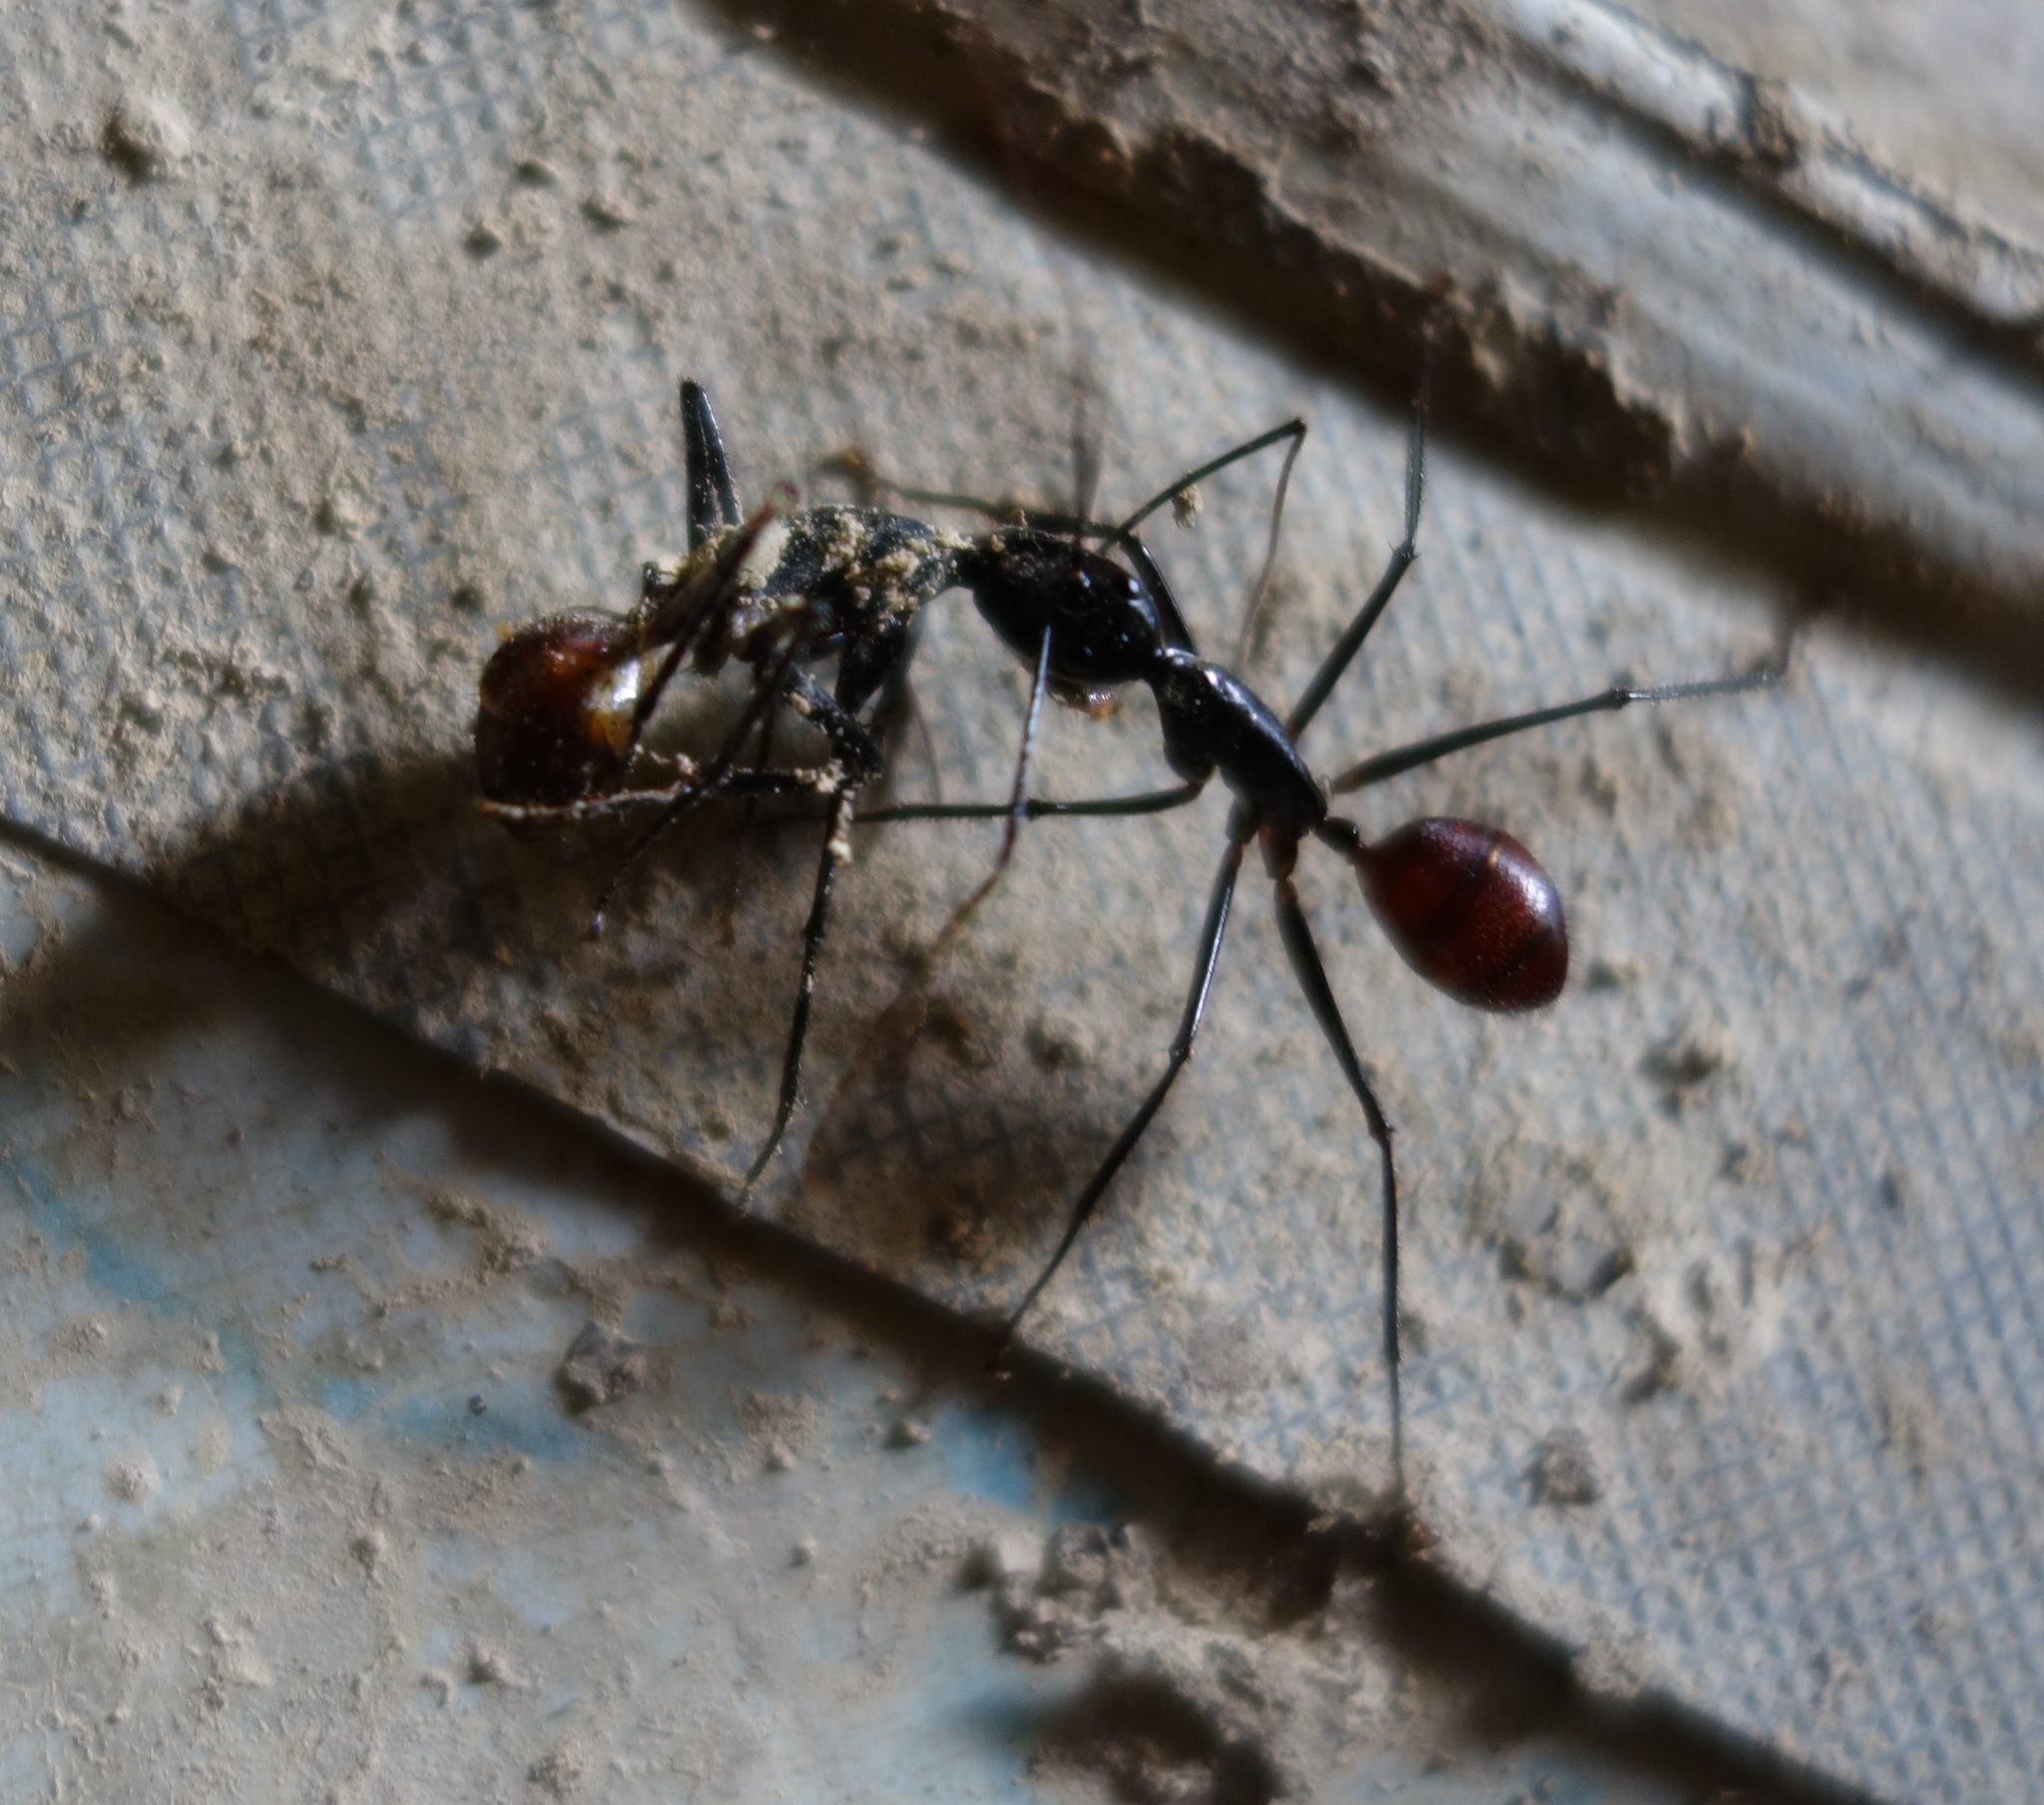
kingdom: Animalia
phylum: Arthropoda
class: Insecta
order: Hymenoptera
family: Formicidae
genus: Dinomyrmex
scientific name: Dinomyrmex
